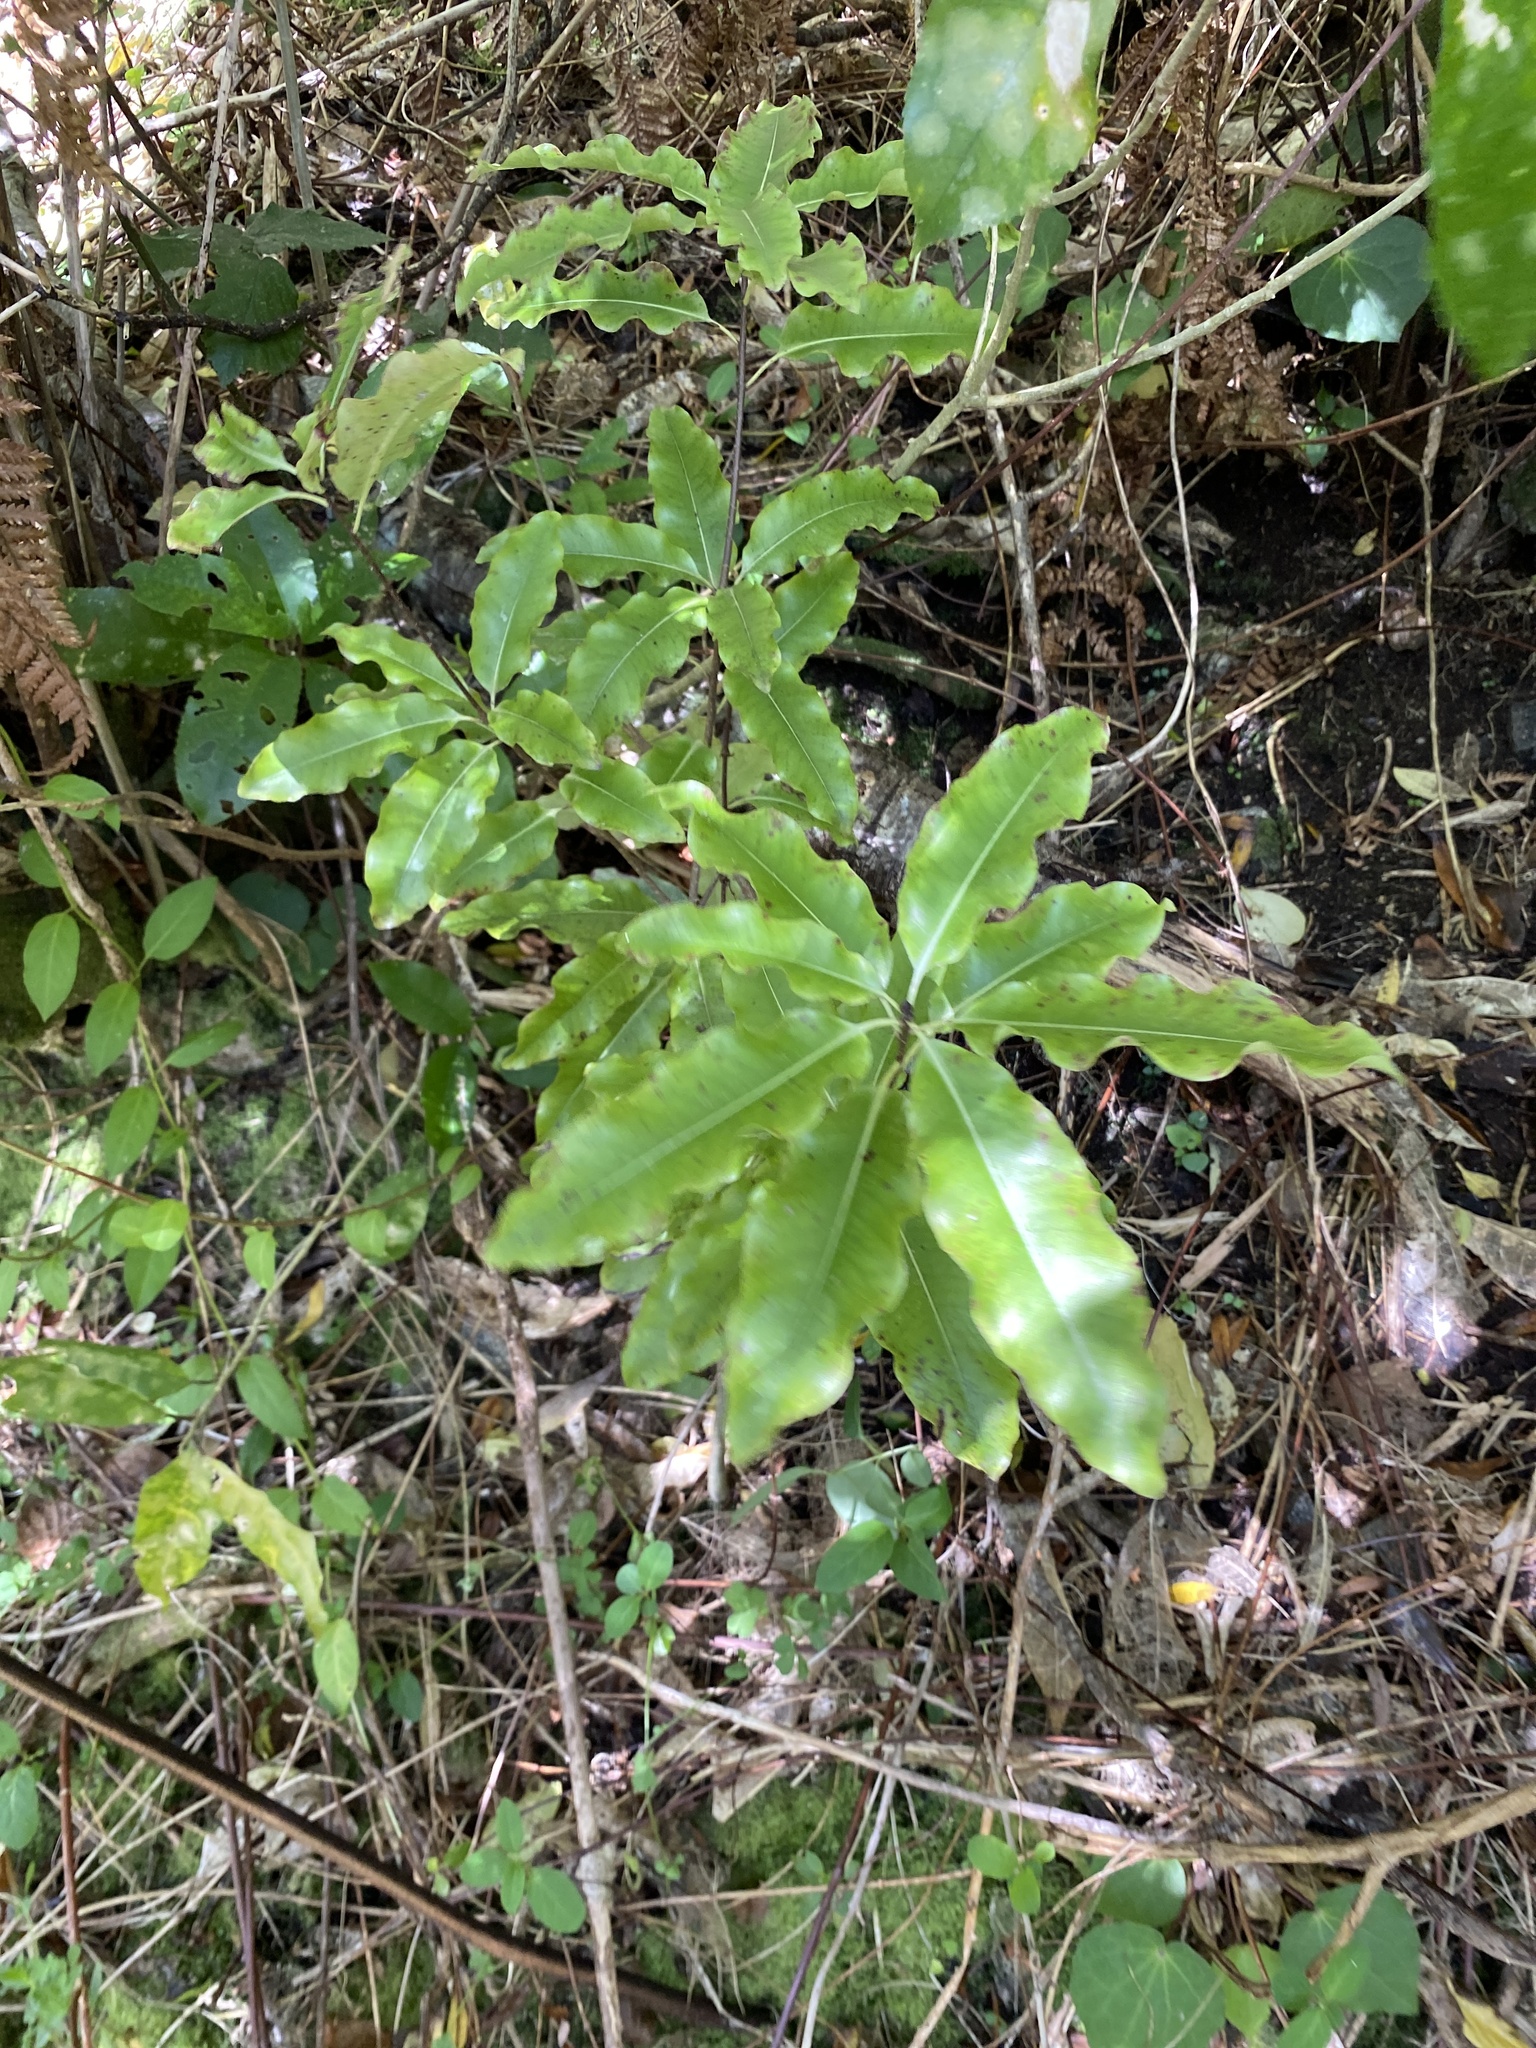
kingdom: Plantae
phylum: Tracheophyta
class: Magnoliopsida
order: Apiales
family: Pittosporaceae
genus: Pittosporum
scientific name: Pittosporum eugenioides
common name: Lemonwood
